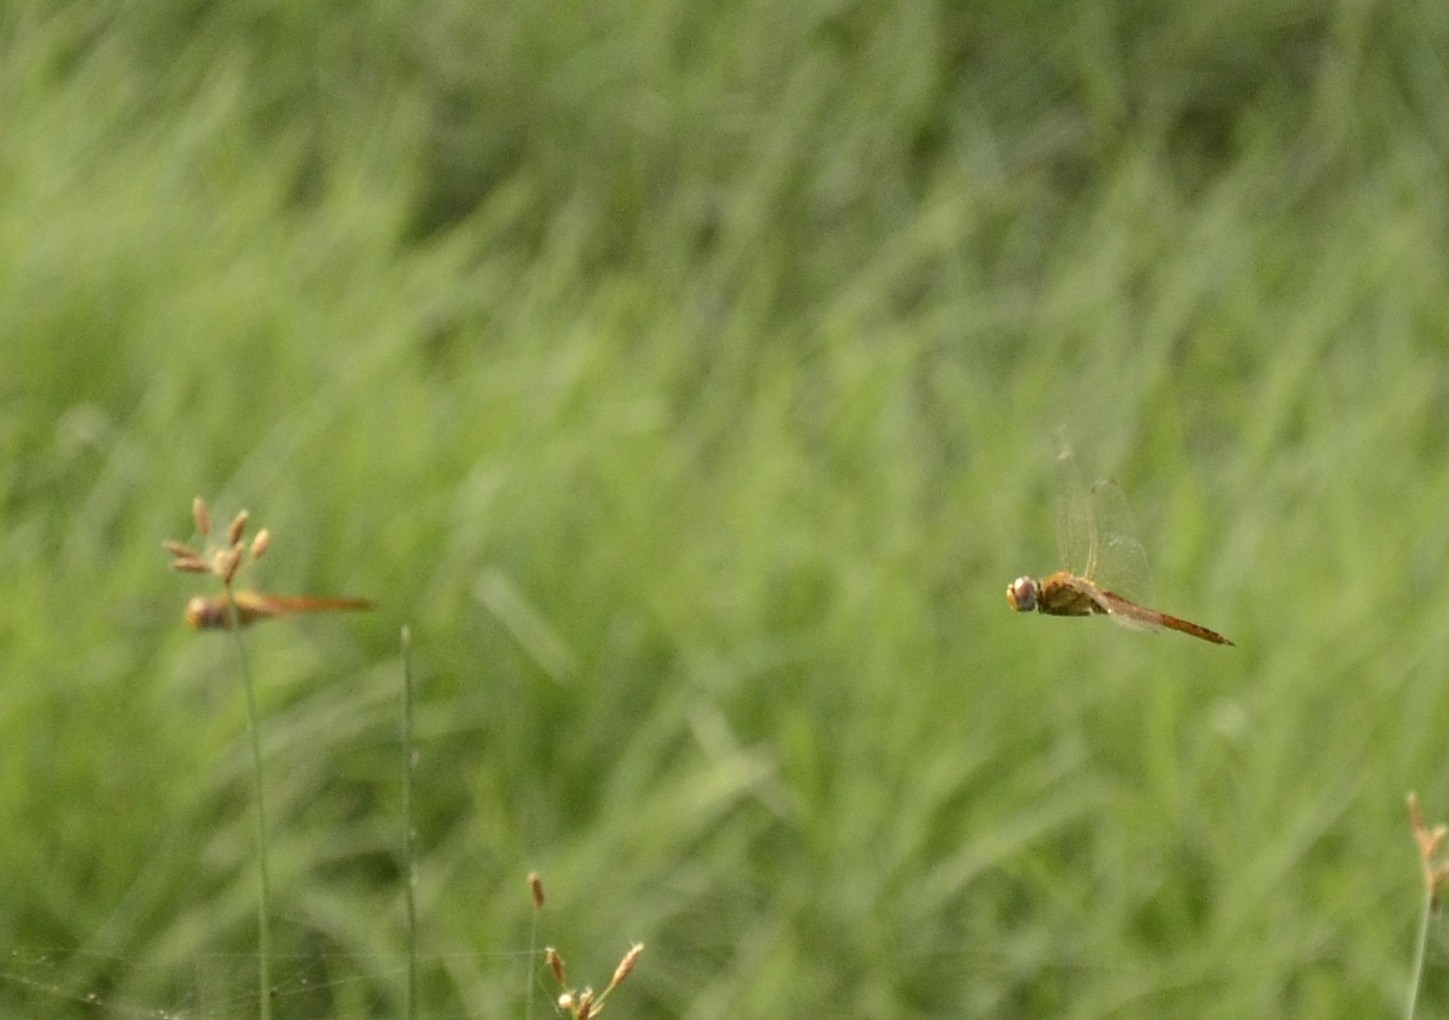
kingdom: Animalia
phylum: Arthropoda
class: Insecta
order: Odonata
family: Libellulidae
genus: Pantala
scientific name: Pantala flavescens
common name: Wandering glider
